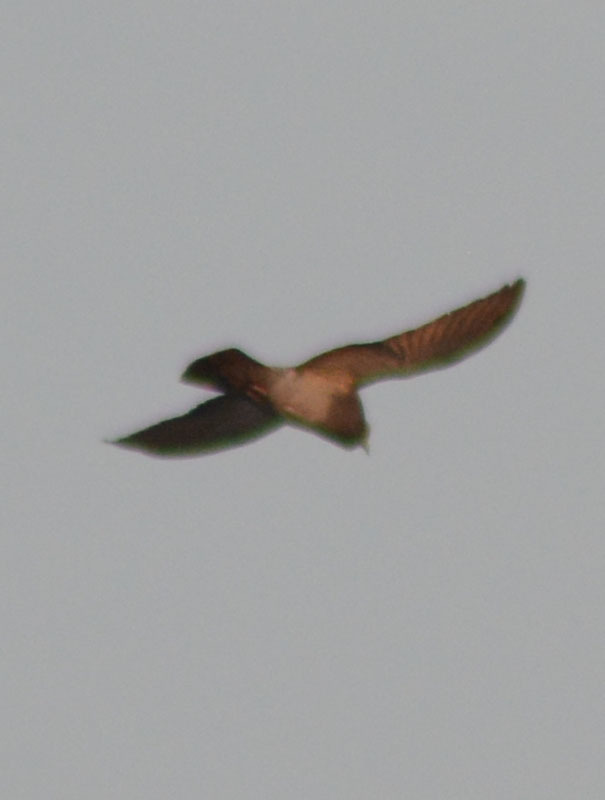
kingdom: Animalia
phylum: Chordata
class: Aves
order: Columbiformes
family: Columbidae
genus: Columba
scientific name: Columba livia
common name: Rock pigeon
